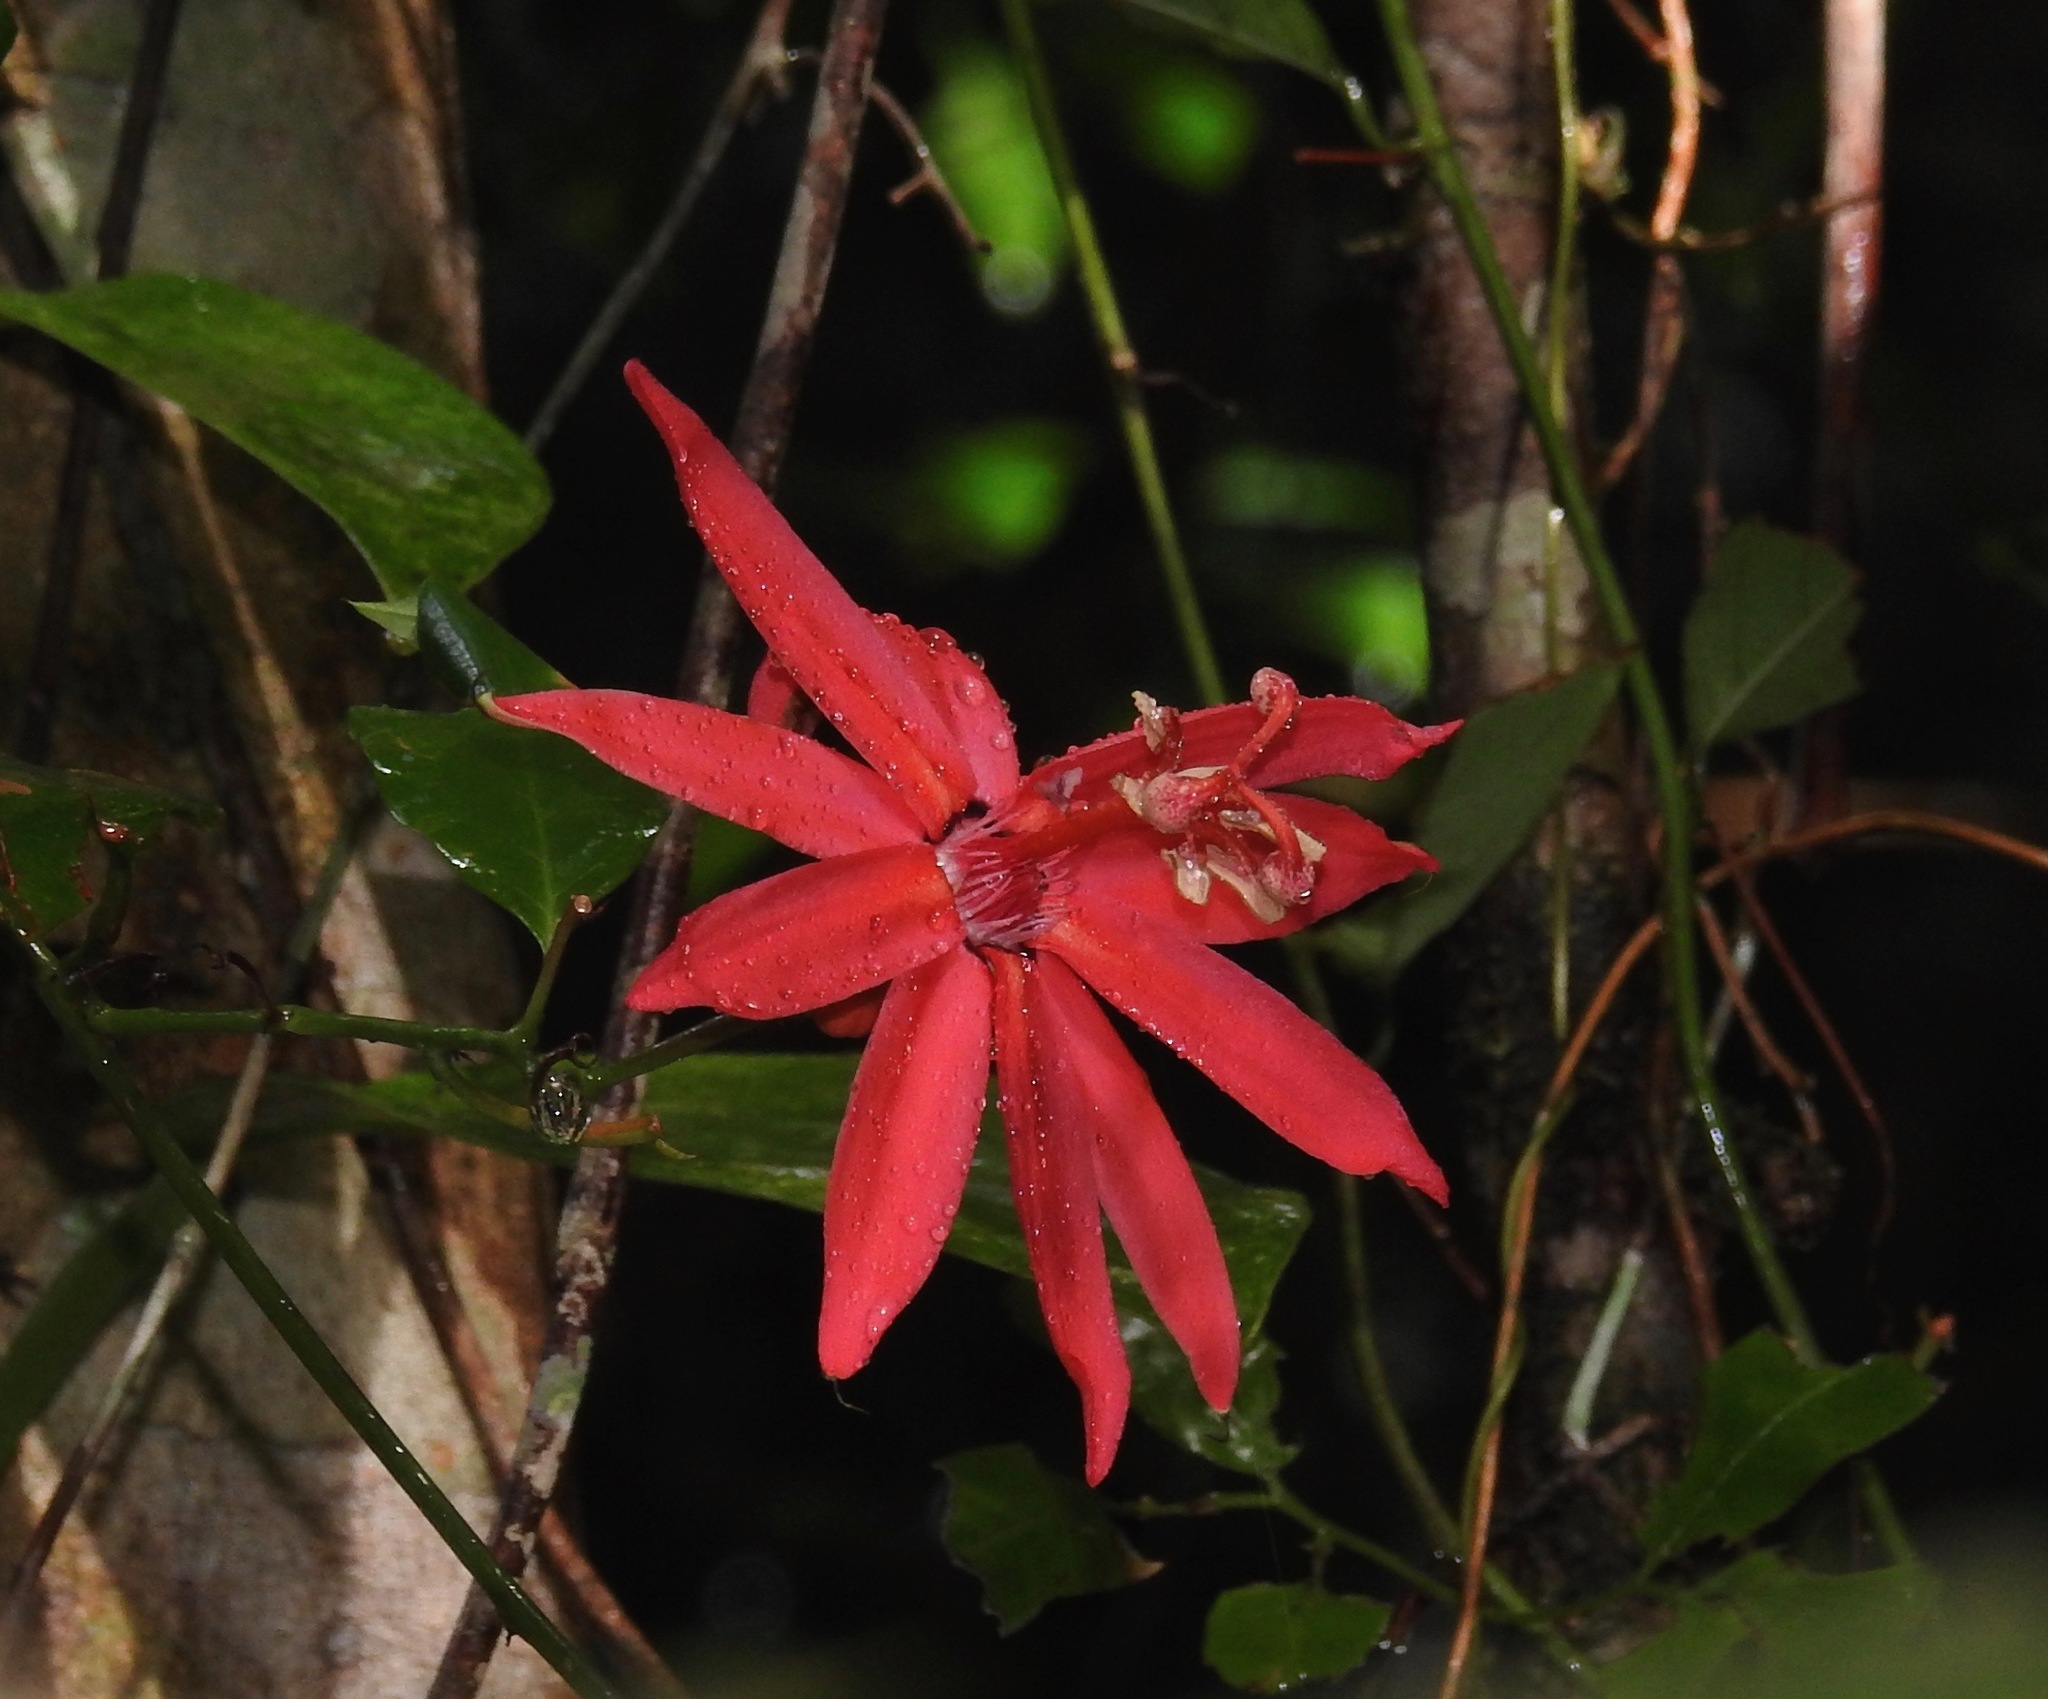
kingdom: Plantae
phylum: Tracheophyta
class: Magnoliopsida
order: Malpighiales
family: Passifloraceae
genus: Passiflora
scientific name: Passiflora glandulosa
